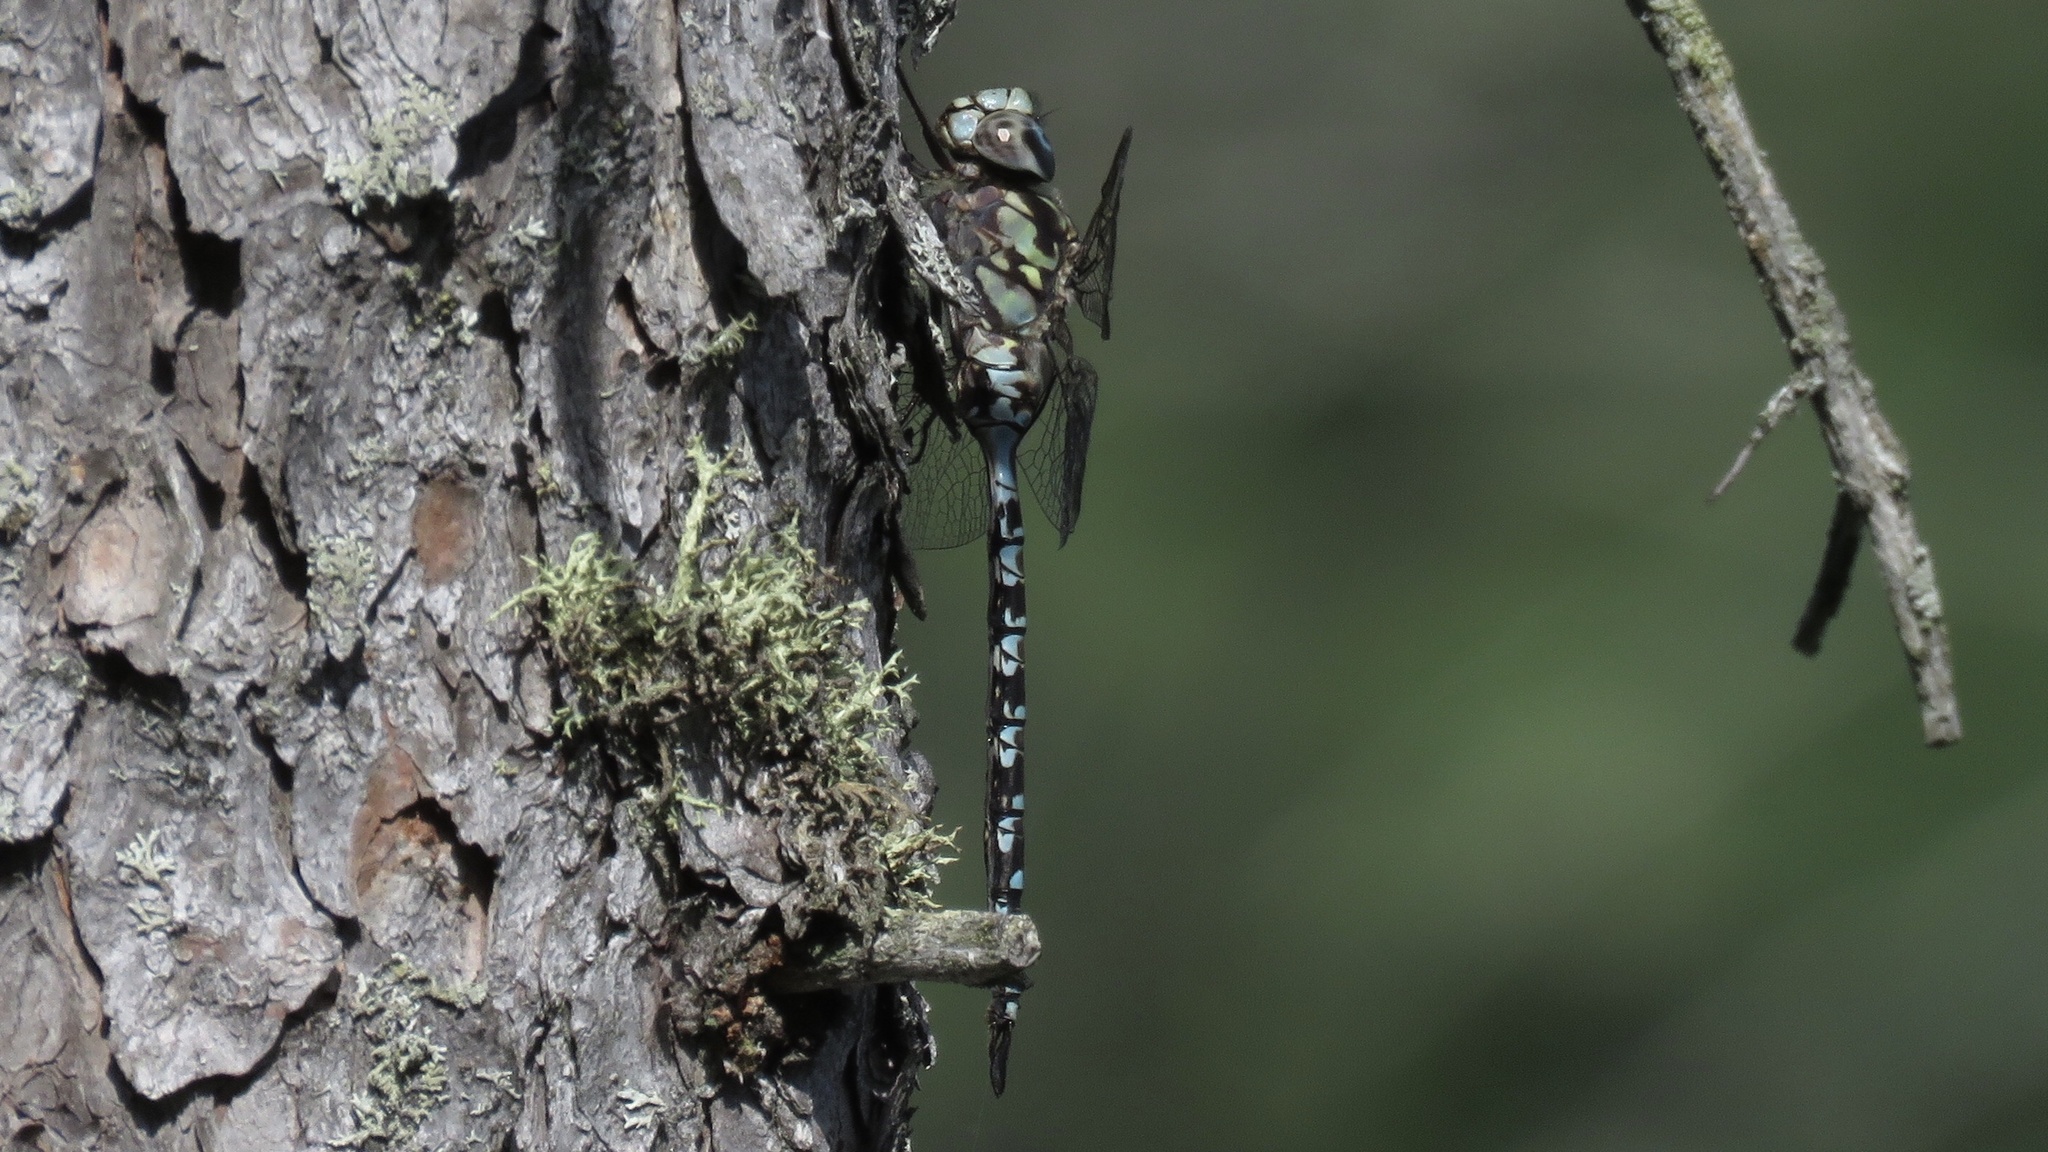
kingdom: Animalia
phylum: Arthropoda
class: Insecta
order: Odonata
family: Aeshnidae
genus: Aeshna
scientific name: Aeshna clepsydra
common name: Mottled darner
